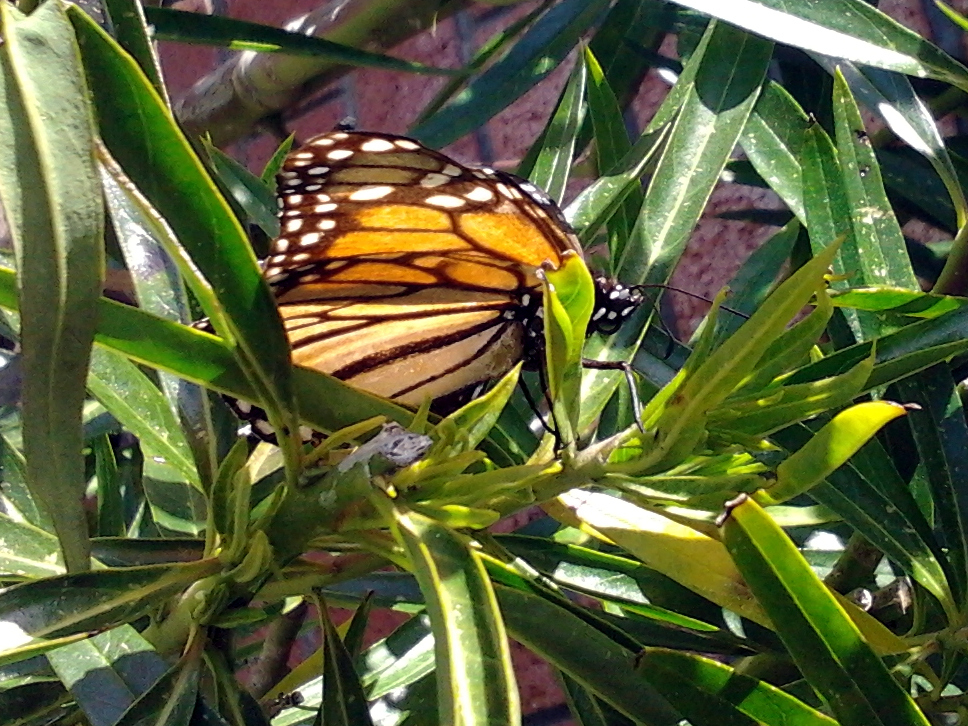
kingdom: Animalia
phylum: Arthropoda
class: Insecta
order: Lepidoptera
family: Nymphalidae
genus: Danaus
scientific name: Danaus plexippus
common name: Monarch
